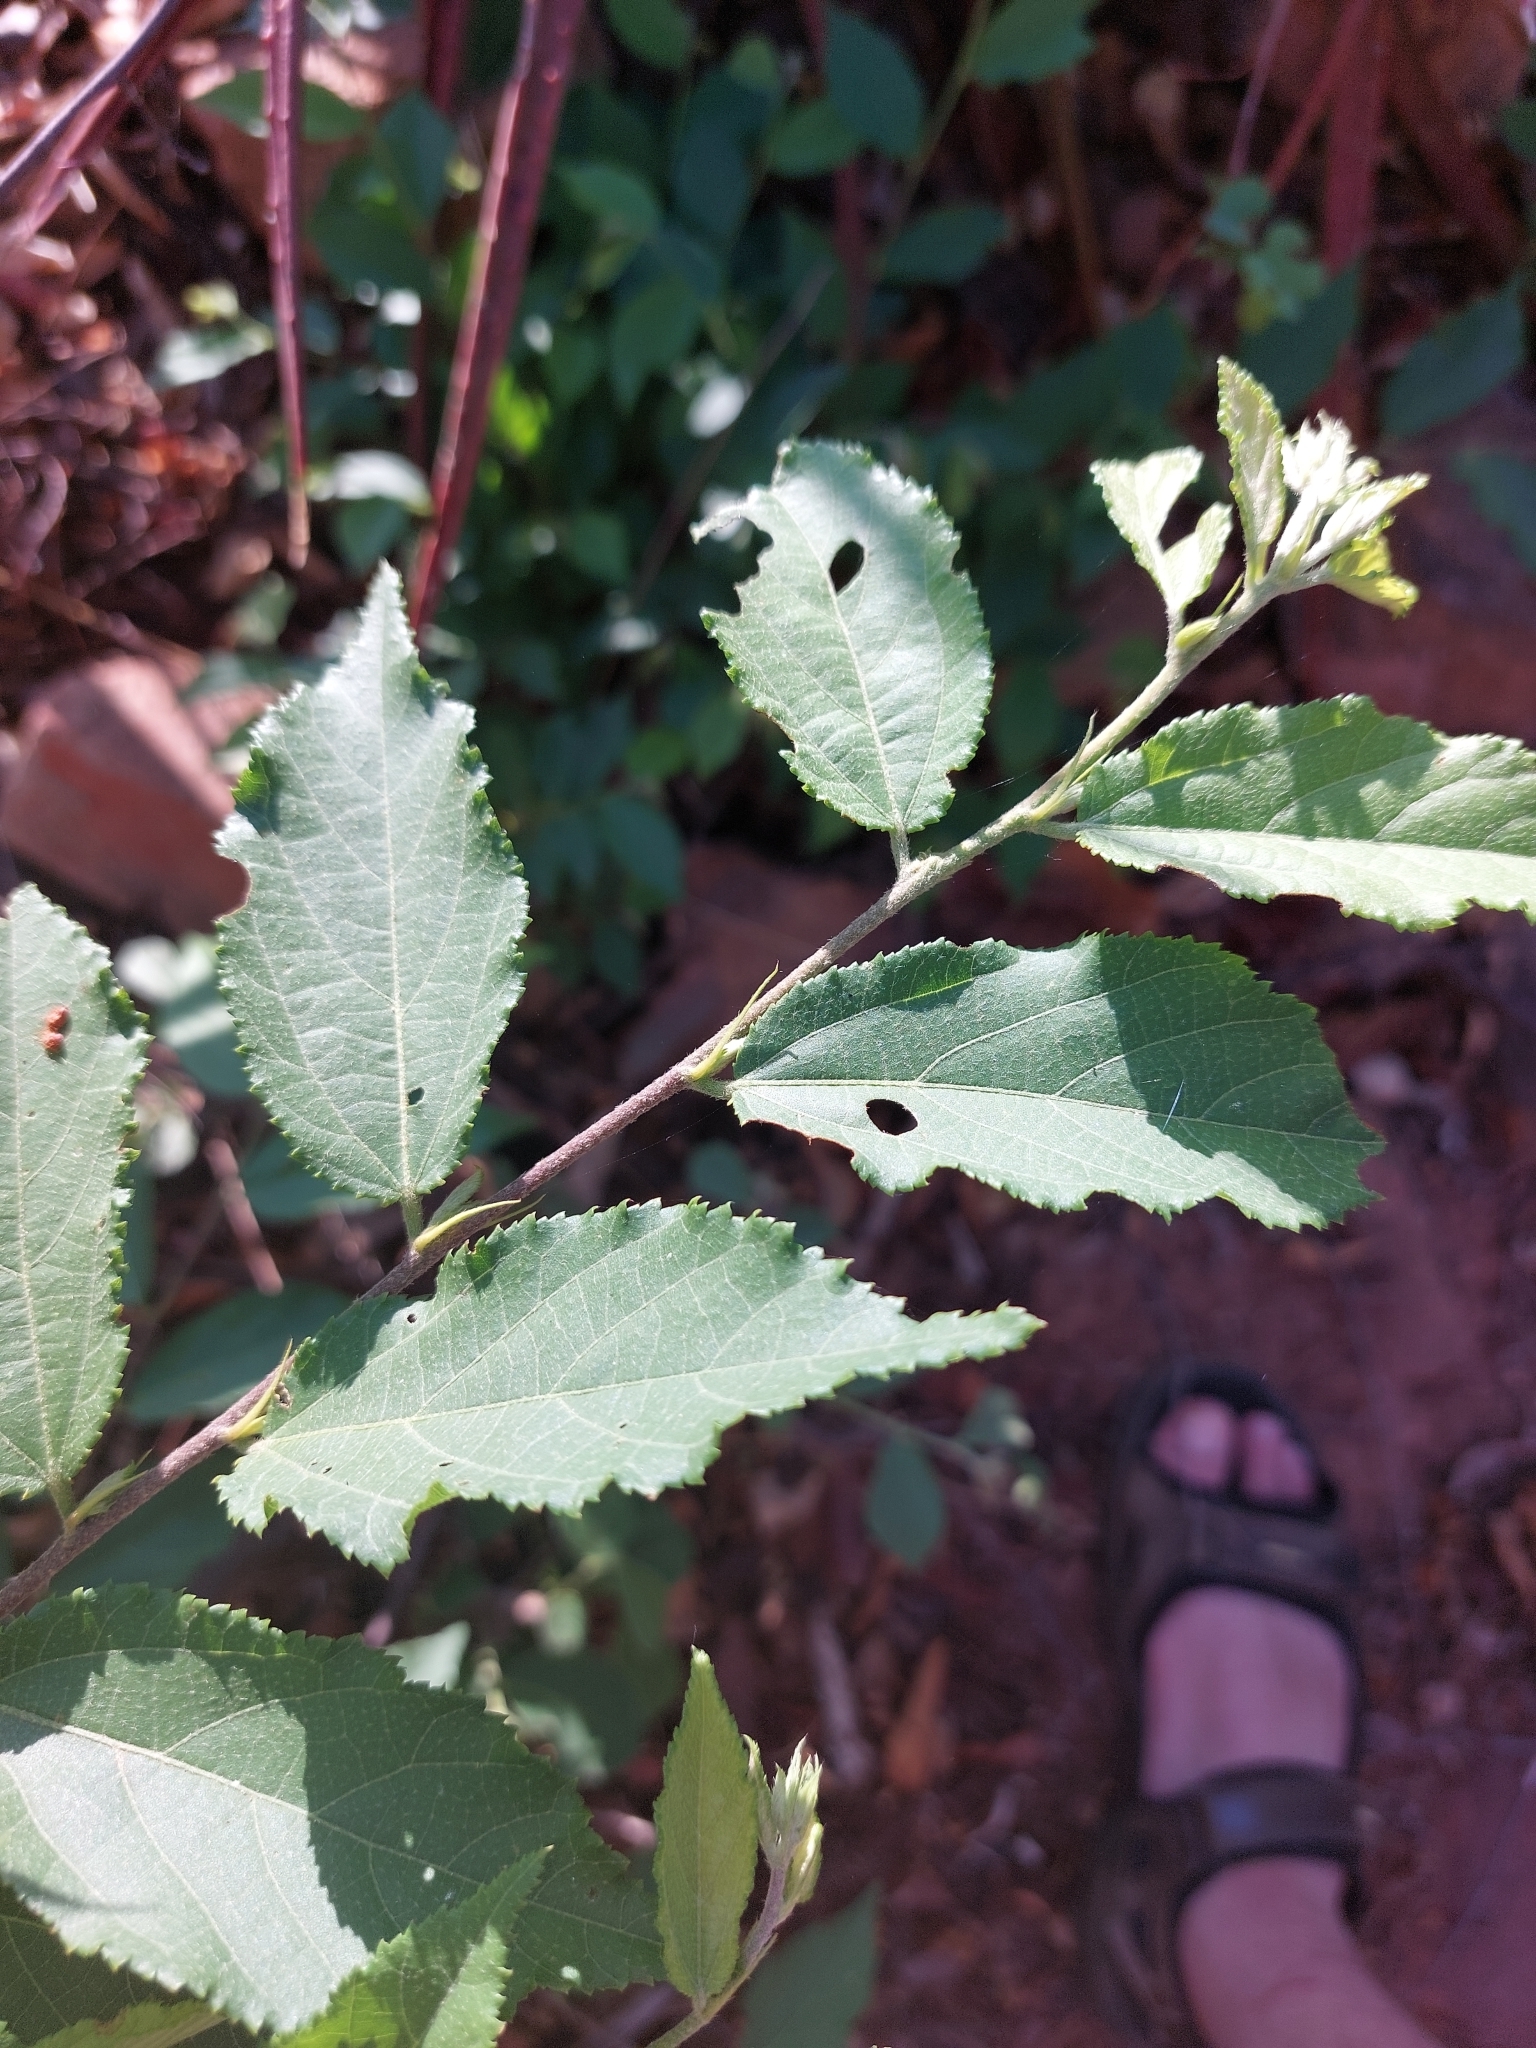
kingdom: Plantae
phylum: Tracheophyta
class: Magnoliopsida
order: Malvales
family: Malvaceae
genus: Grewia
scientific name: Grewia flavescens
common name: Sandpaper raisin
